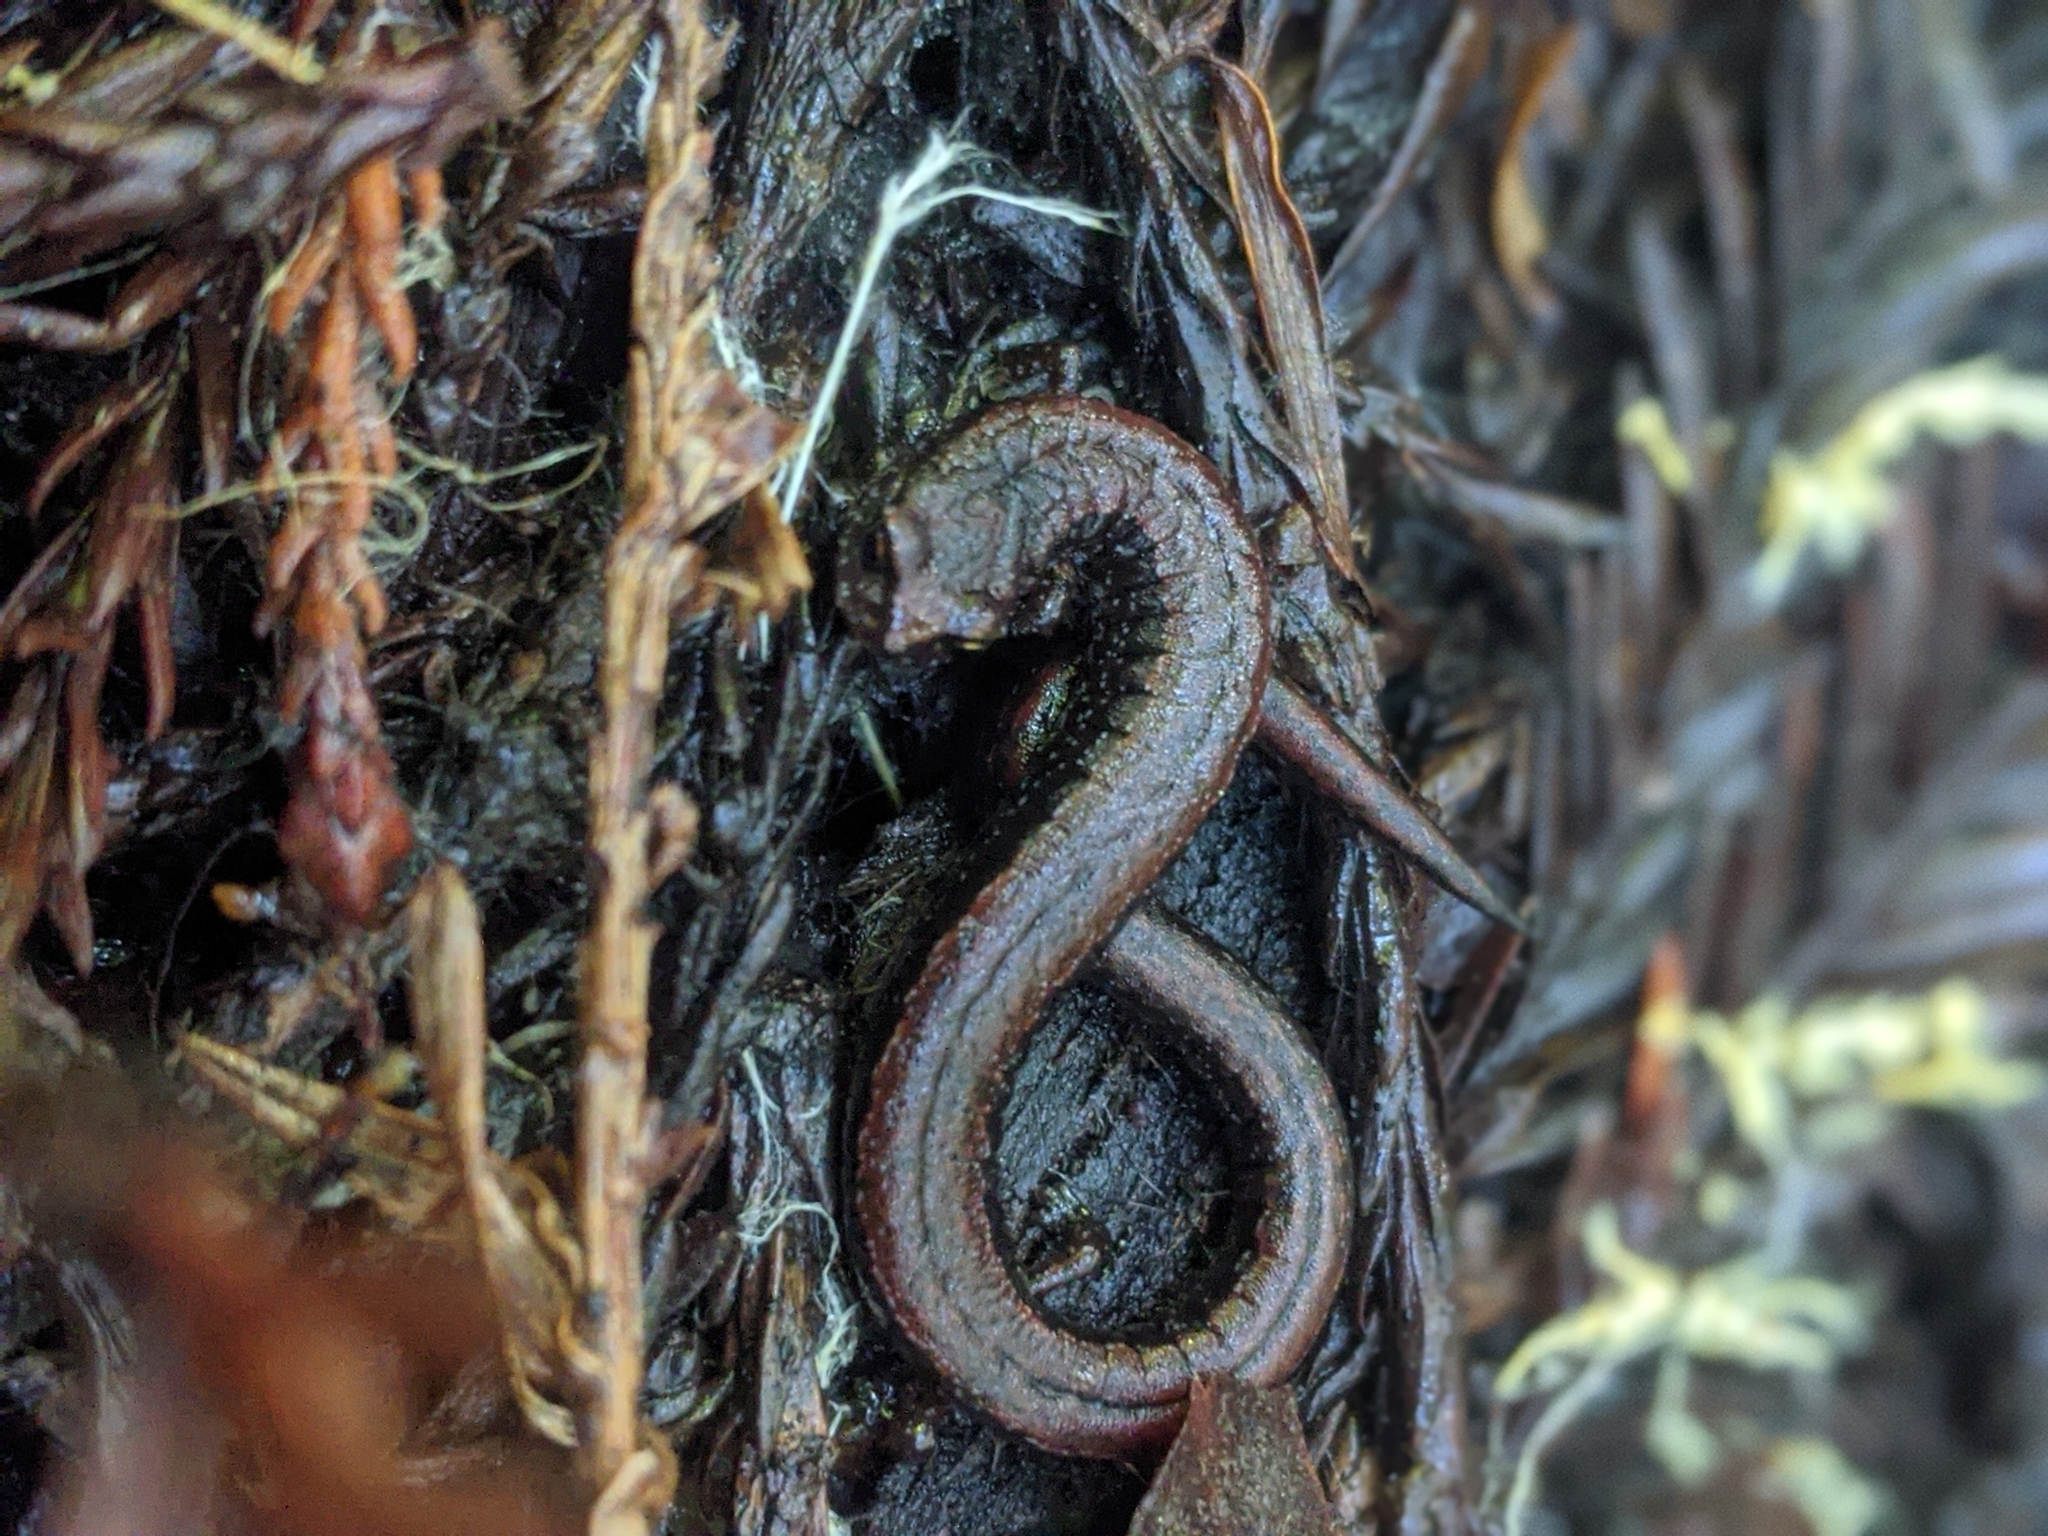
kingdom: Animalia
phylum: Chordata
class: Amphibia
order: Caudata
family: Plethodontidae
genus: Batrachoseps
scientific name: Batrachoseps attenuatus
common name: California slender salamander
